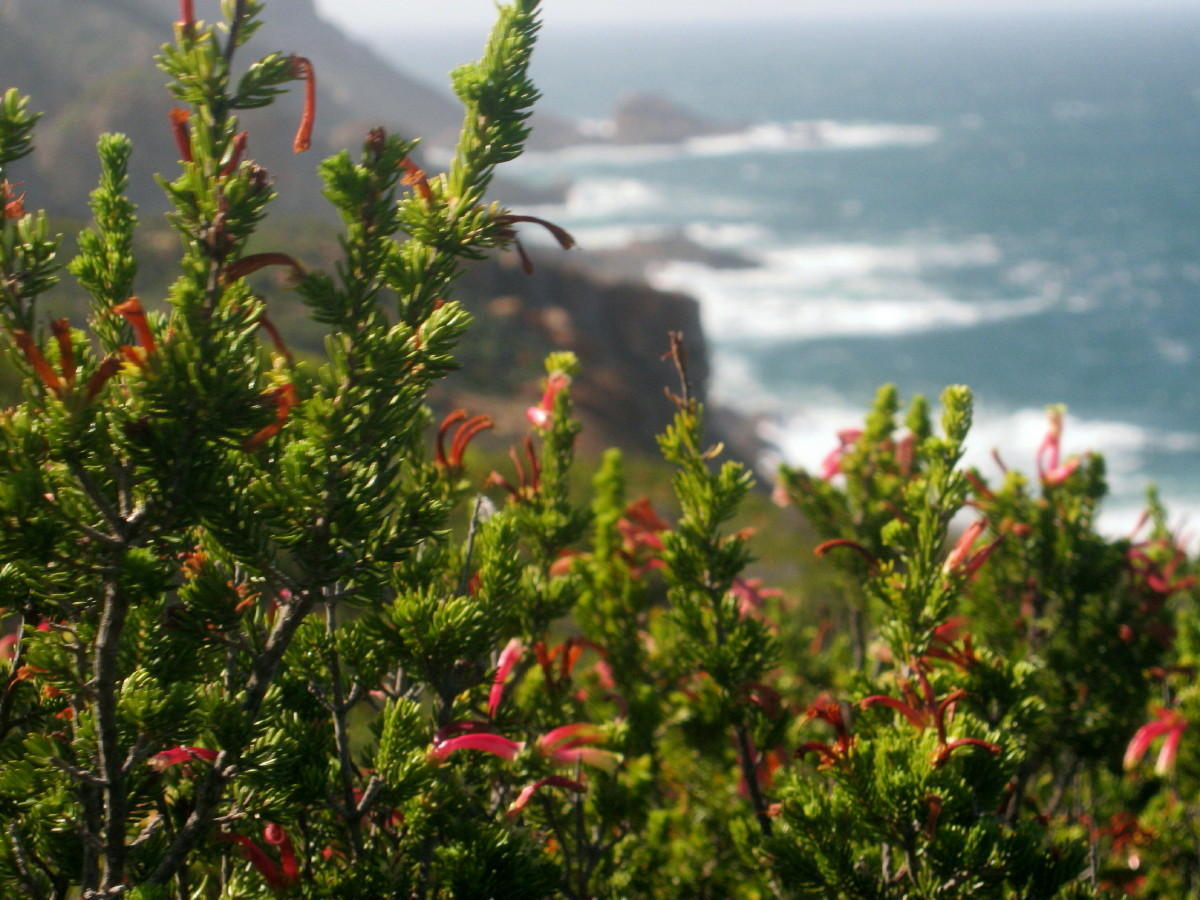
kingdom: Plantae
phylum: Tracheophyta
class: Magnoliopsida
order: Ericales
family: Ericaceae
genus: Erica
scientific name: Erica versicolor
